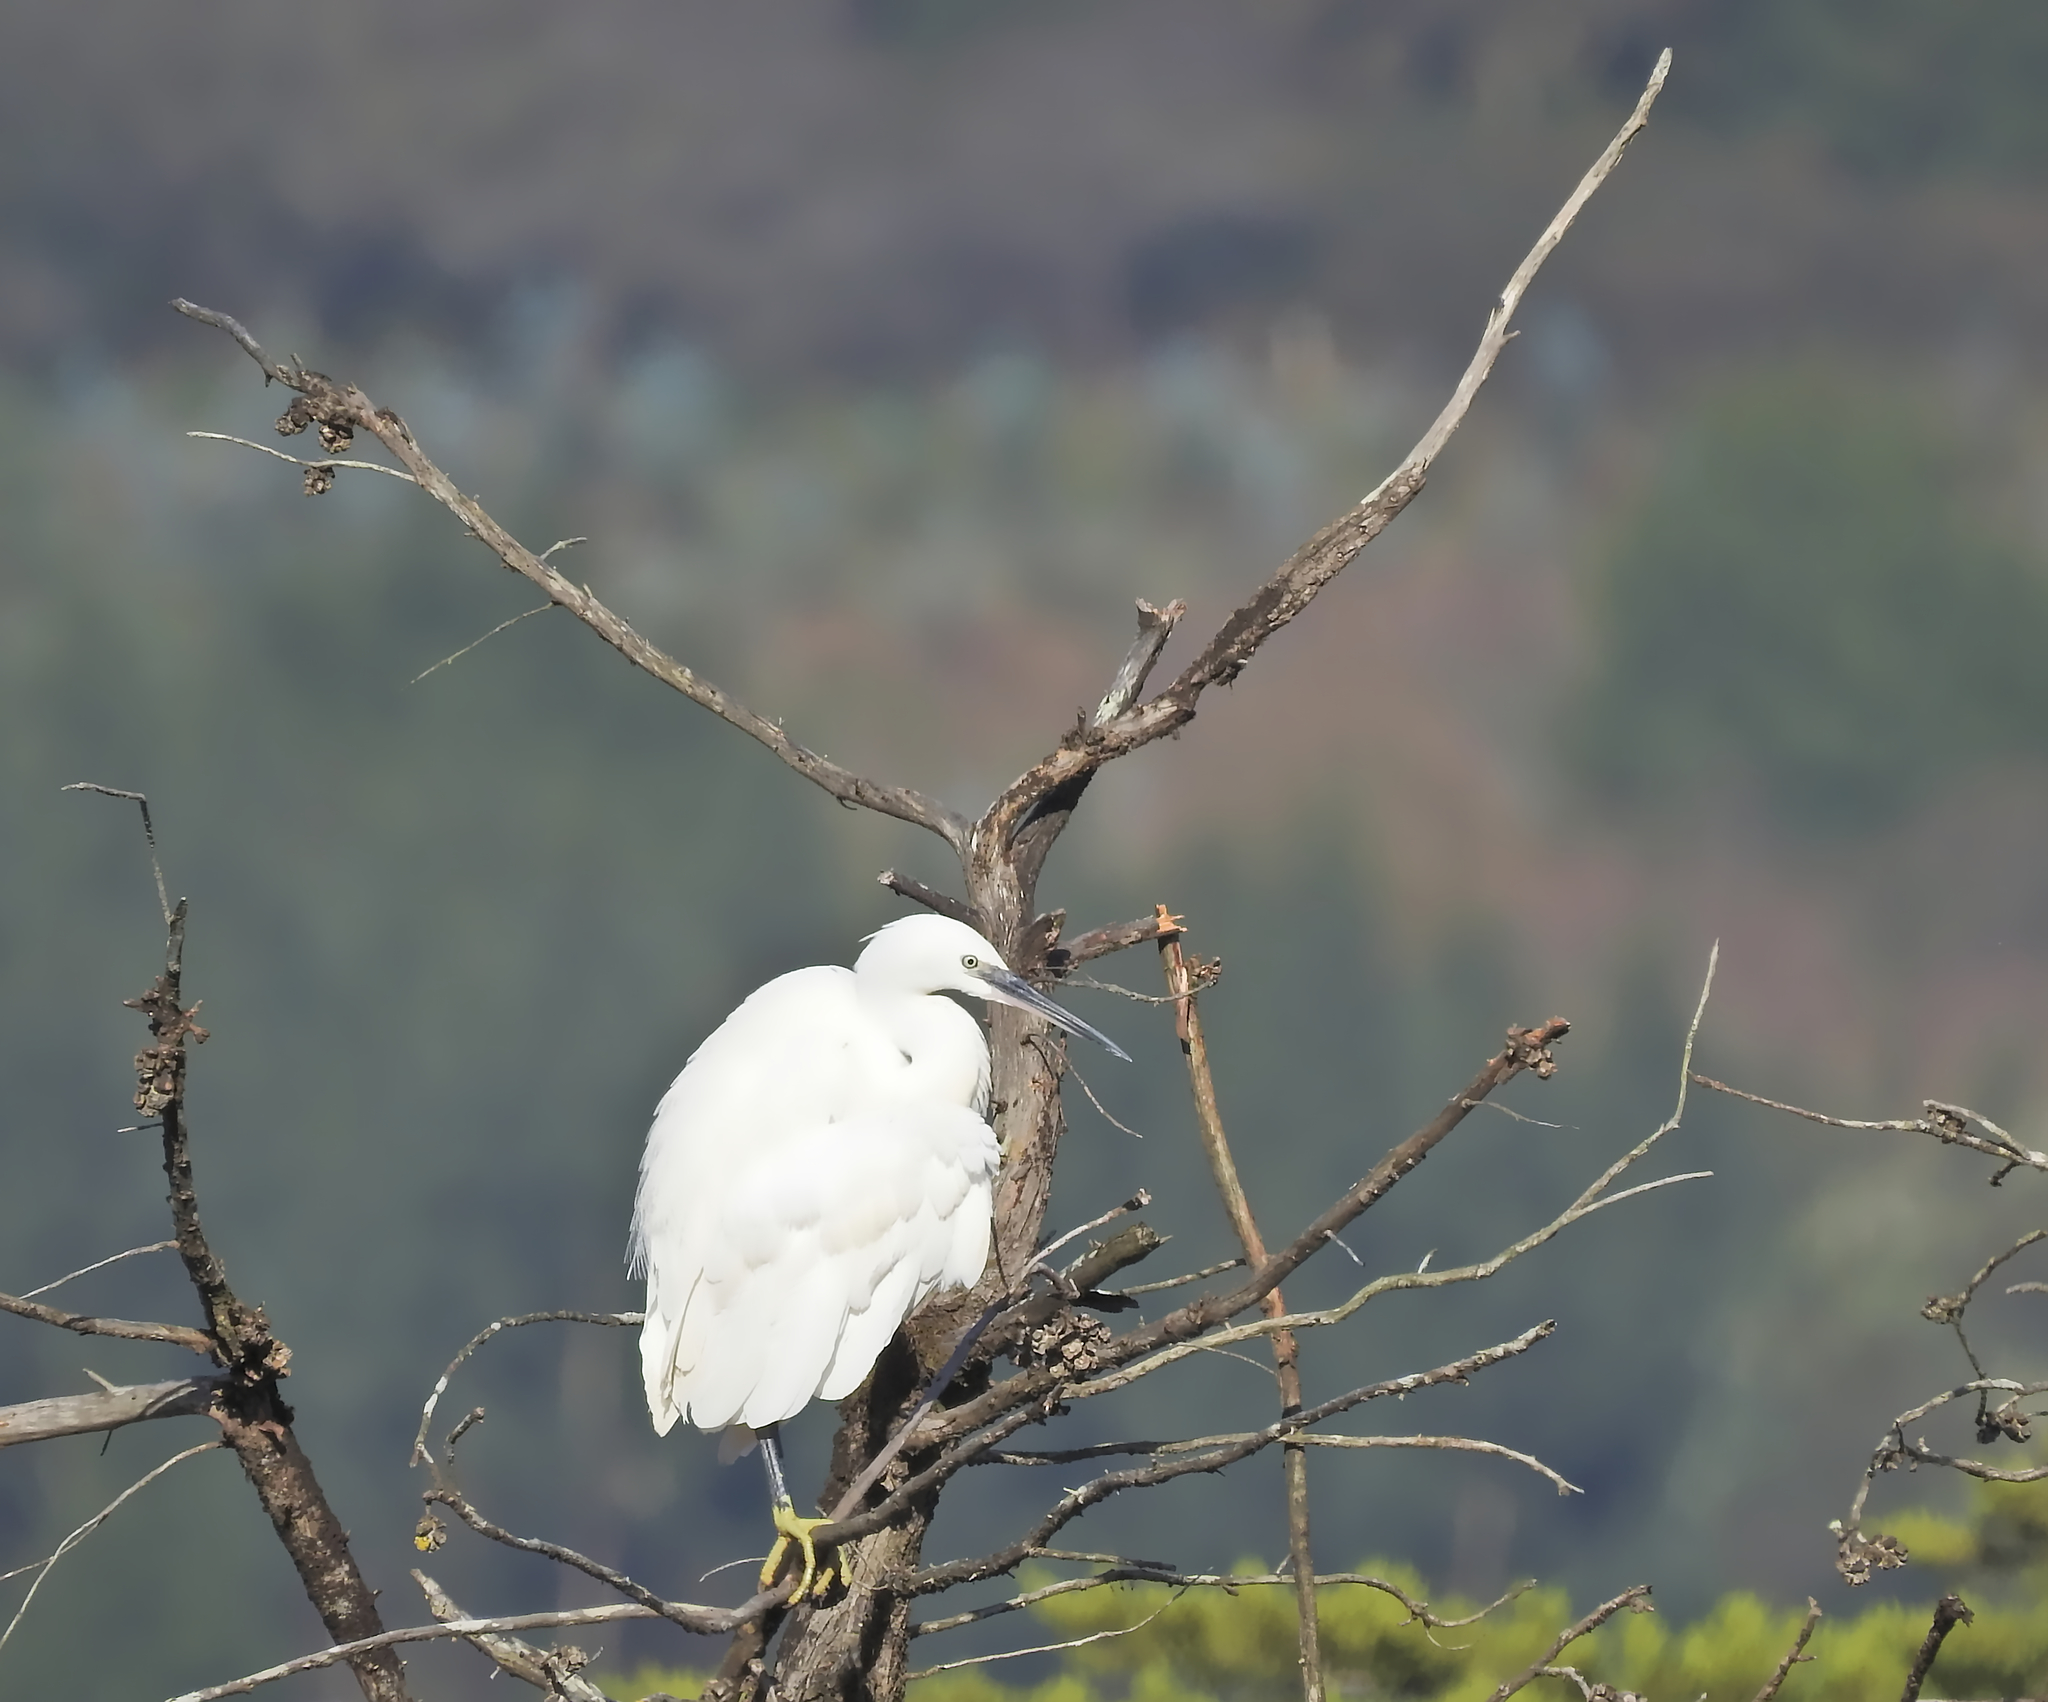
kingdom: Animalia
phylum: Chordata
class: Aves
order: Pelecaniformes
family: Ardeidae
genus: Egretta
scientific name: Egretta garzetta
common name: Little egret
